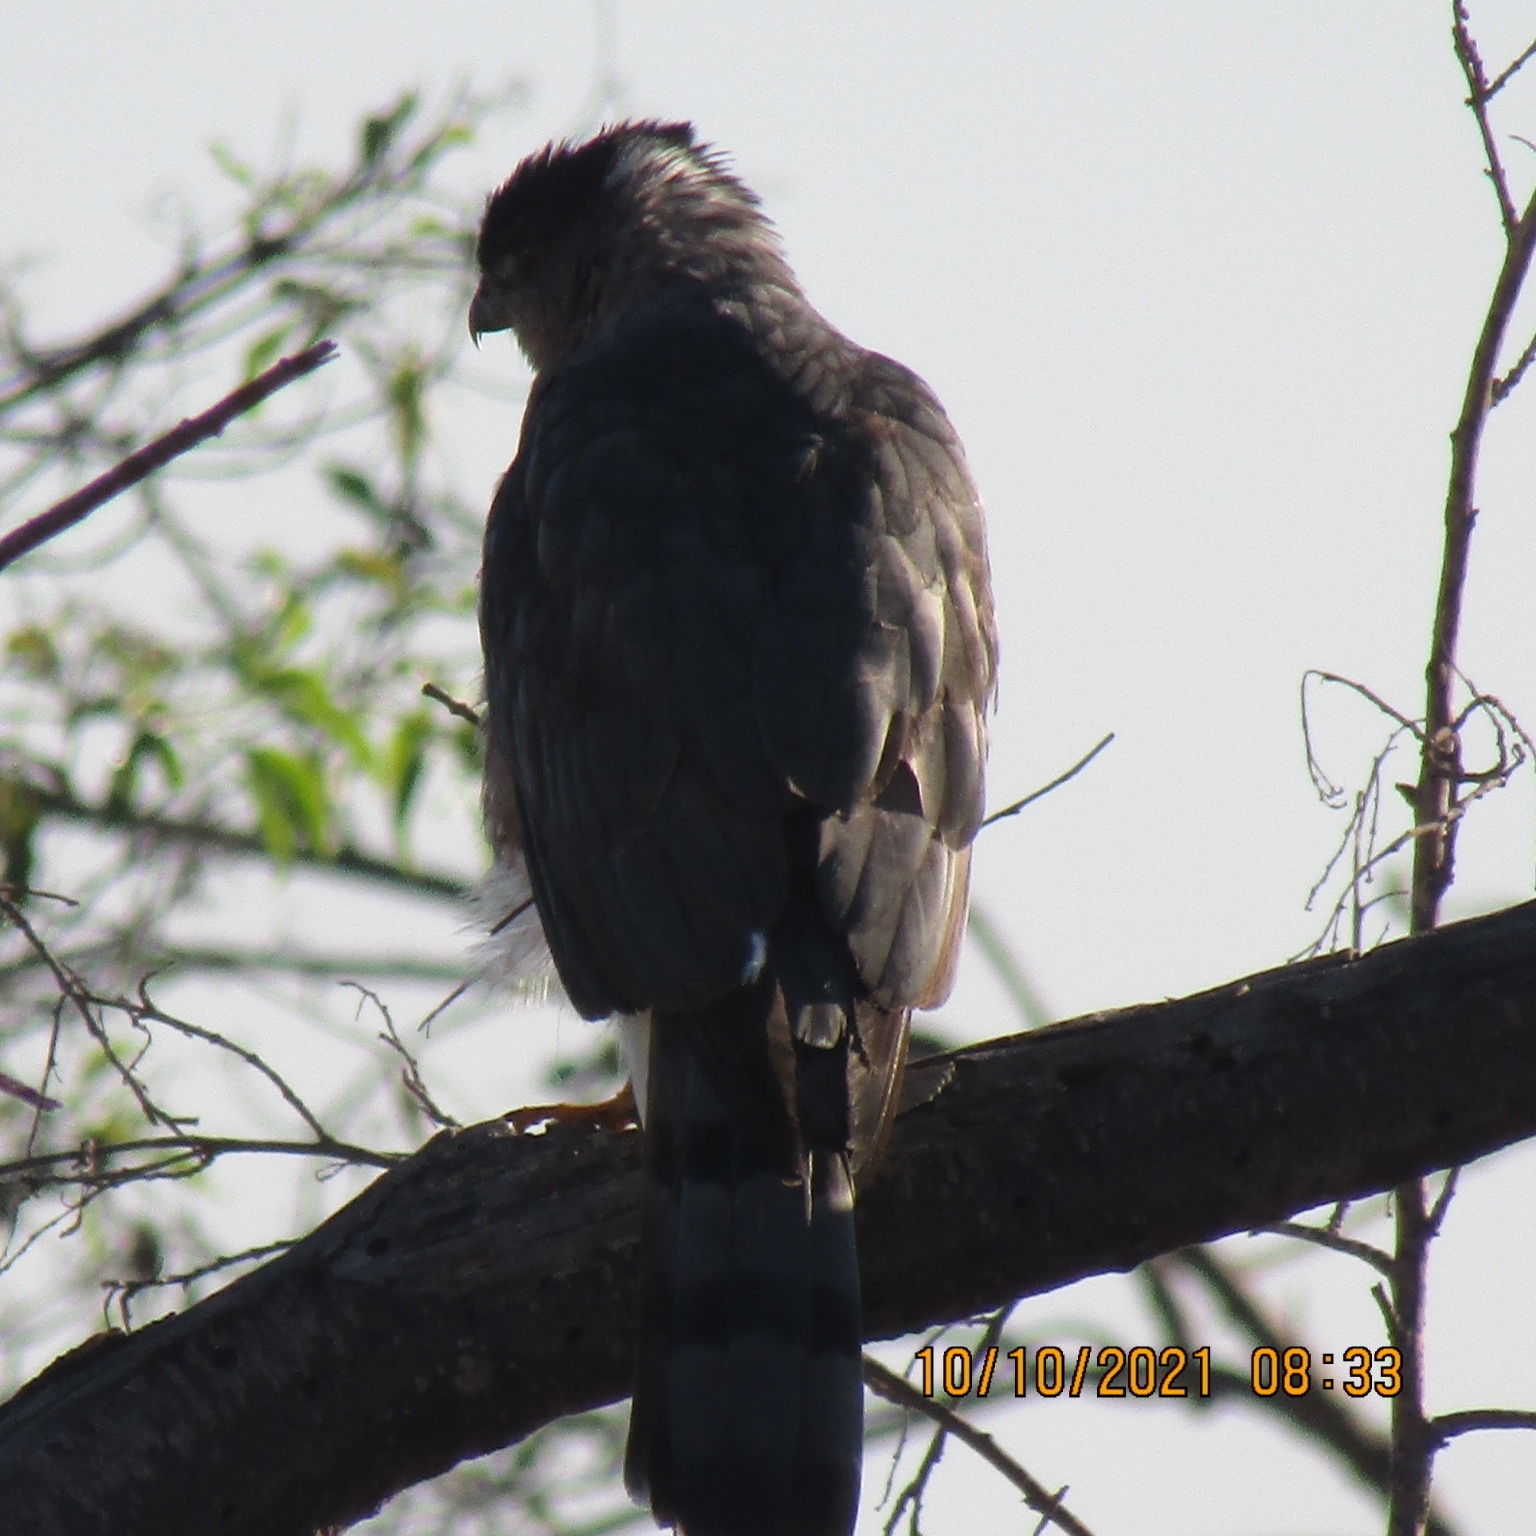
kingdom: Animalia
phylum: Chordata
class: Aves
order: Accipitriformes
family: Accipitridae
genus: Accipiter
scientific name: Accipiter cooperii
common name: Cooper's hawk
